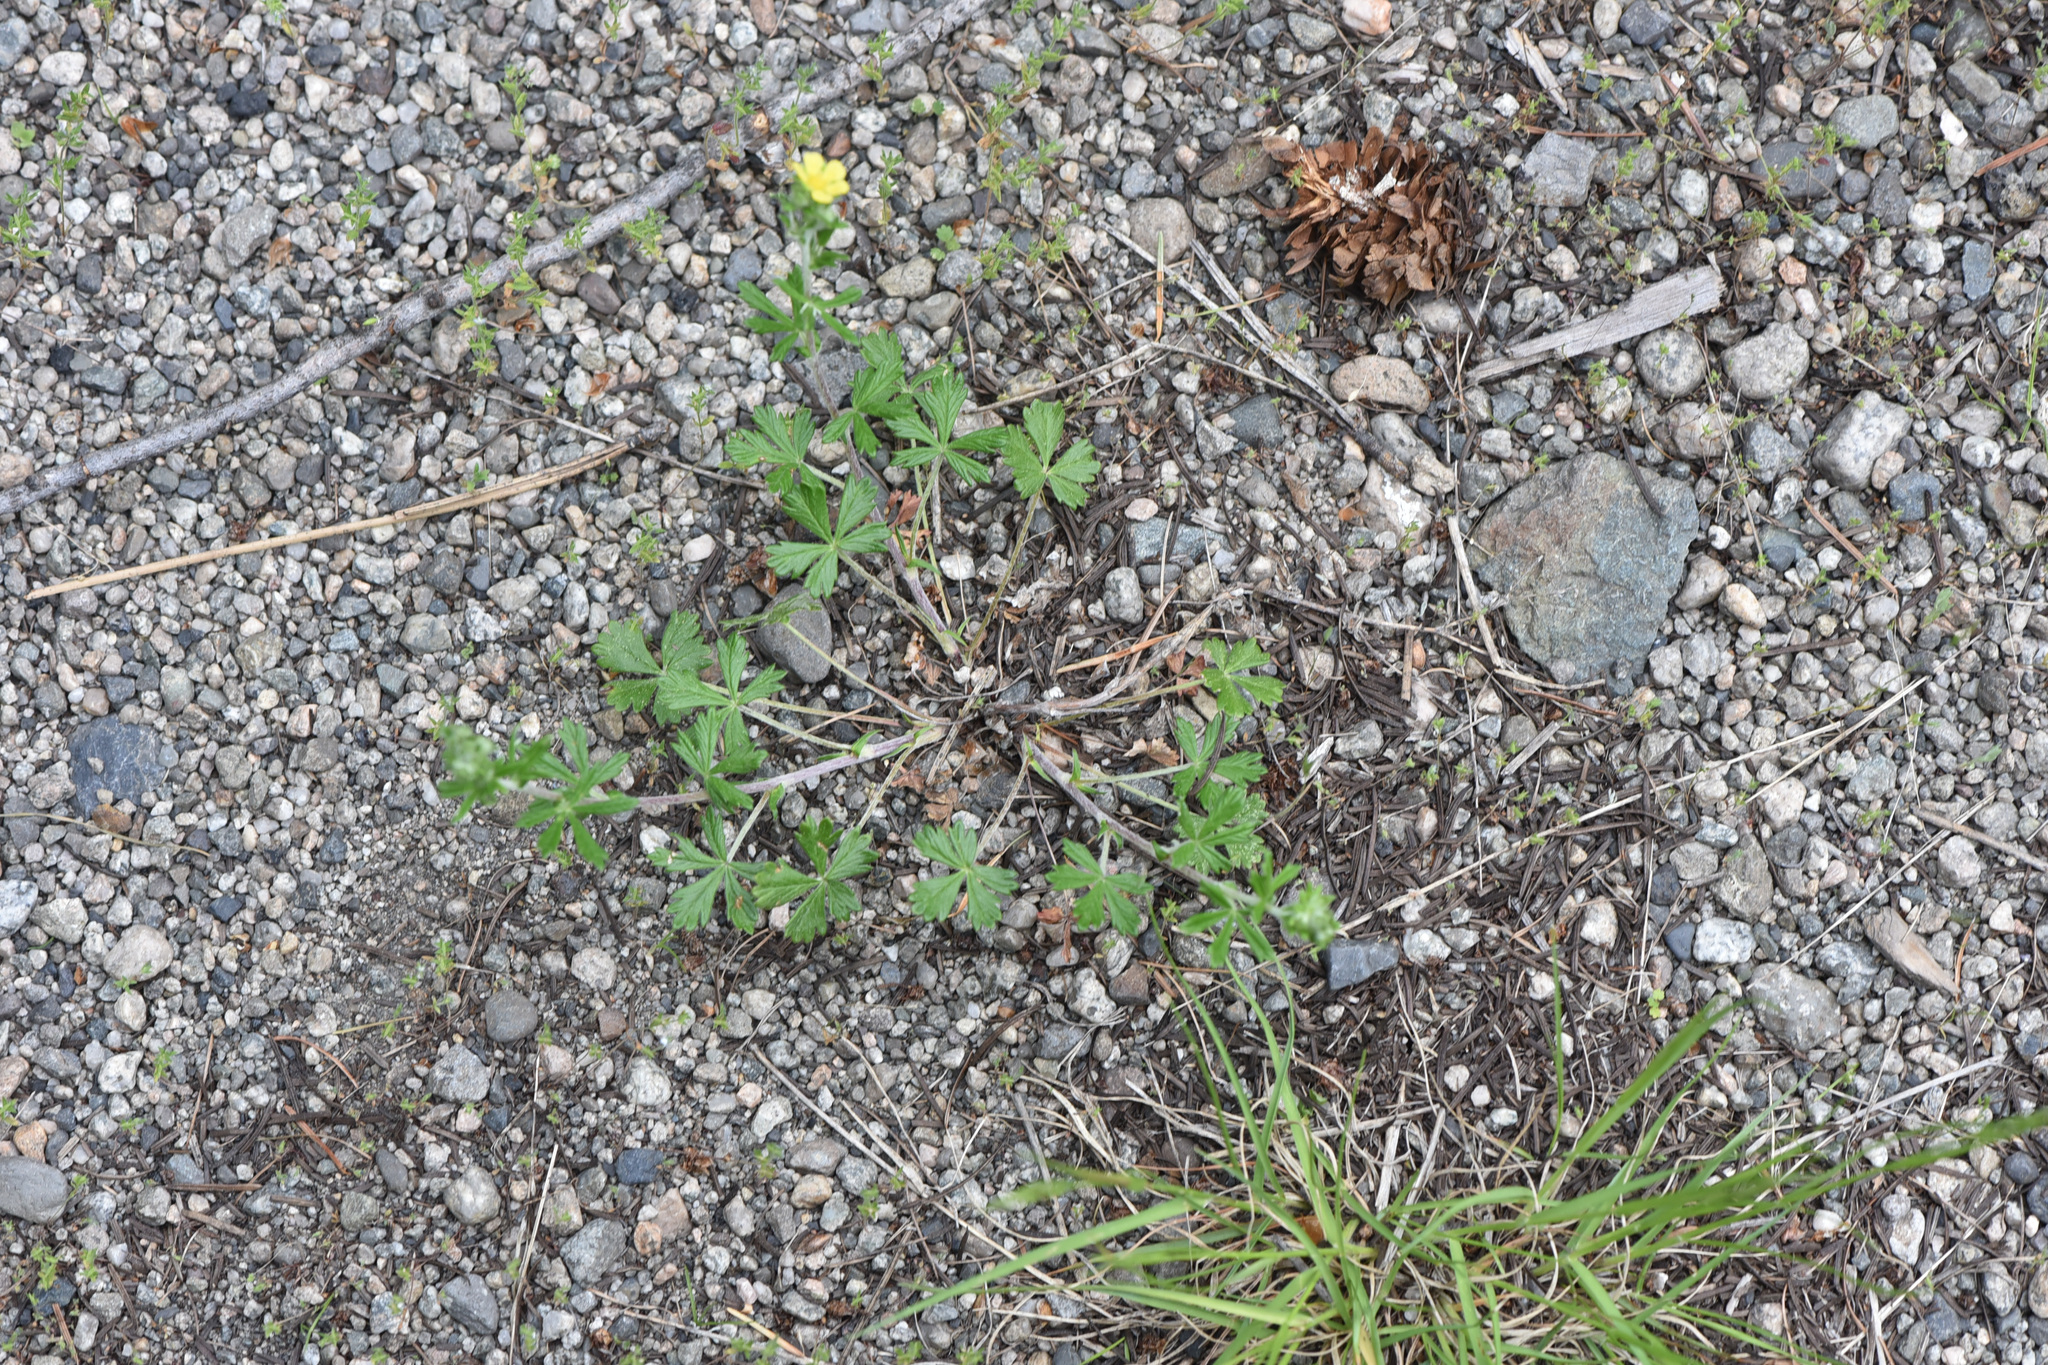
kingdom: Plantae
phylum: Tracheophyta
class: Magnoliopsida
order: Rosales
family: Rosaceae
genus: Potentilla
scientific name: Potentilla argentea
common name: Hoary cinquefoil
